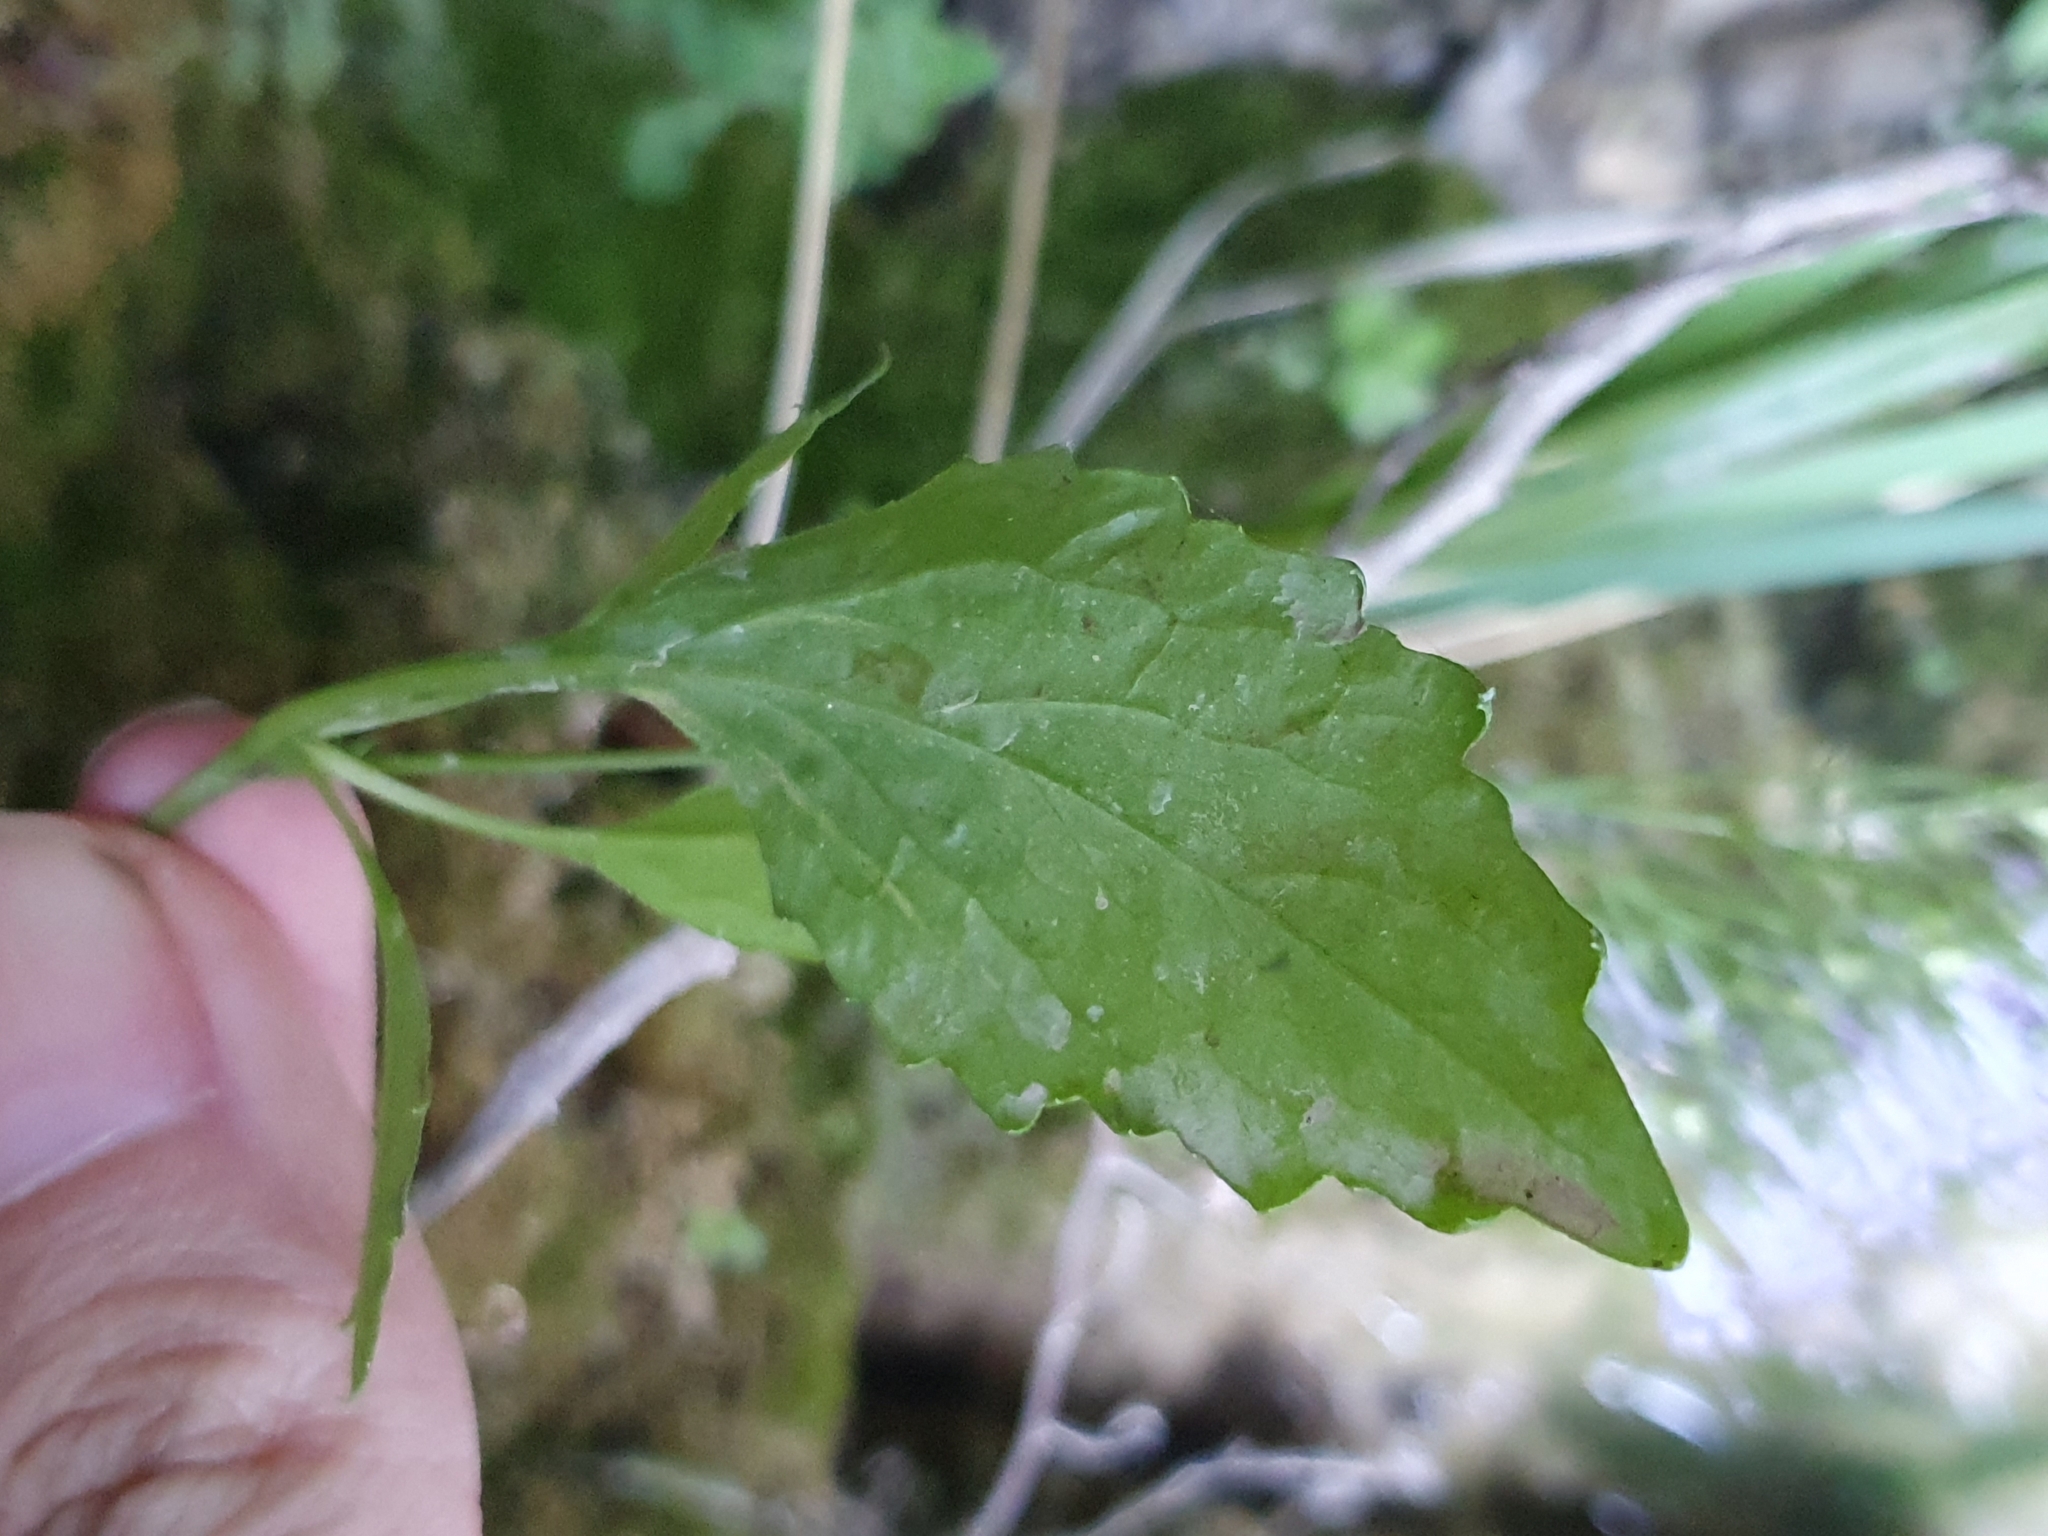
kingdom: Plantae
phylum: Tracheophyta
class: Magnoliopsida
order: Asterales
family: Campanulaceae
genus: Trachelium
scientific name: Trachelium caeruleum
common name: Throatwort
